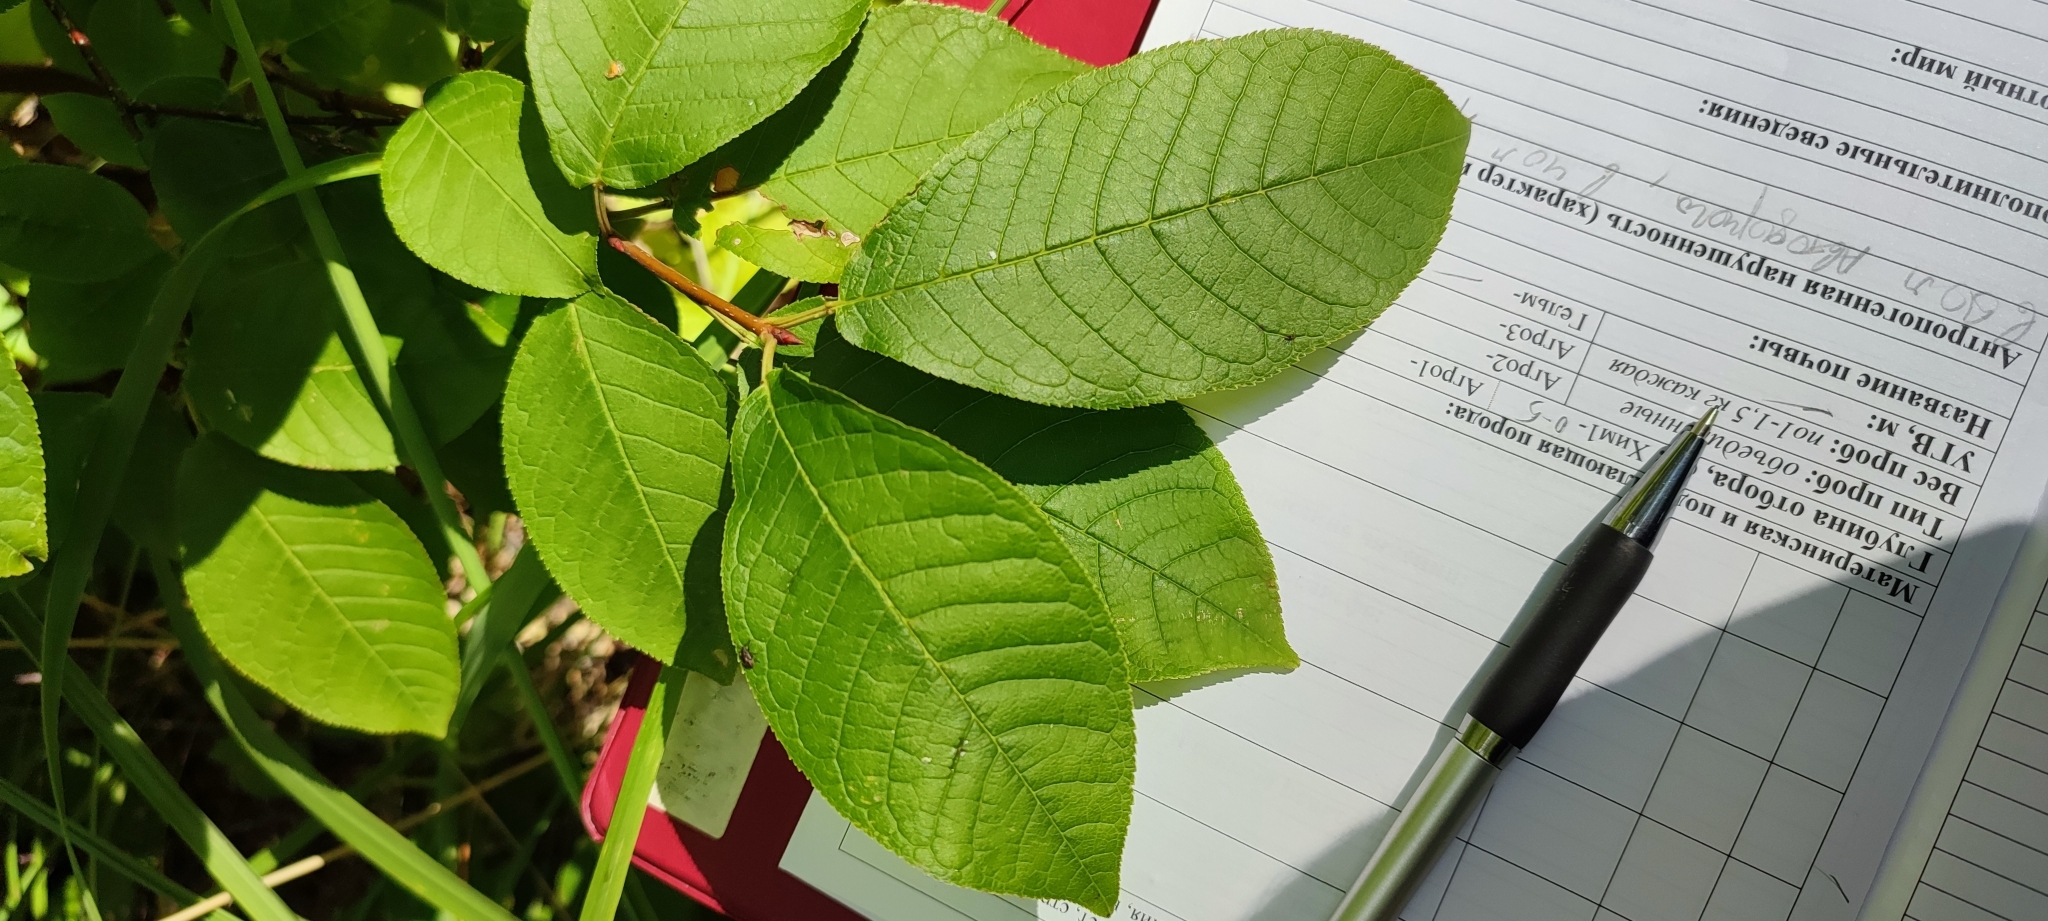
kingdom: Plantae
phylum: Tracheophyta
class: Magnoliopsida
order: Rosales
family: Rosaceae
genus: Prunus
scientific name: Prunus padus
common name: Bird cherry
